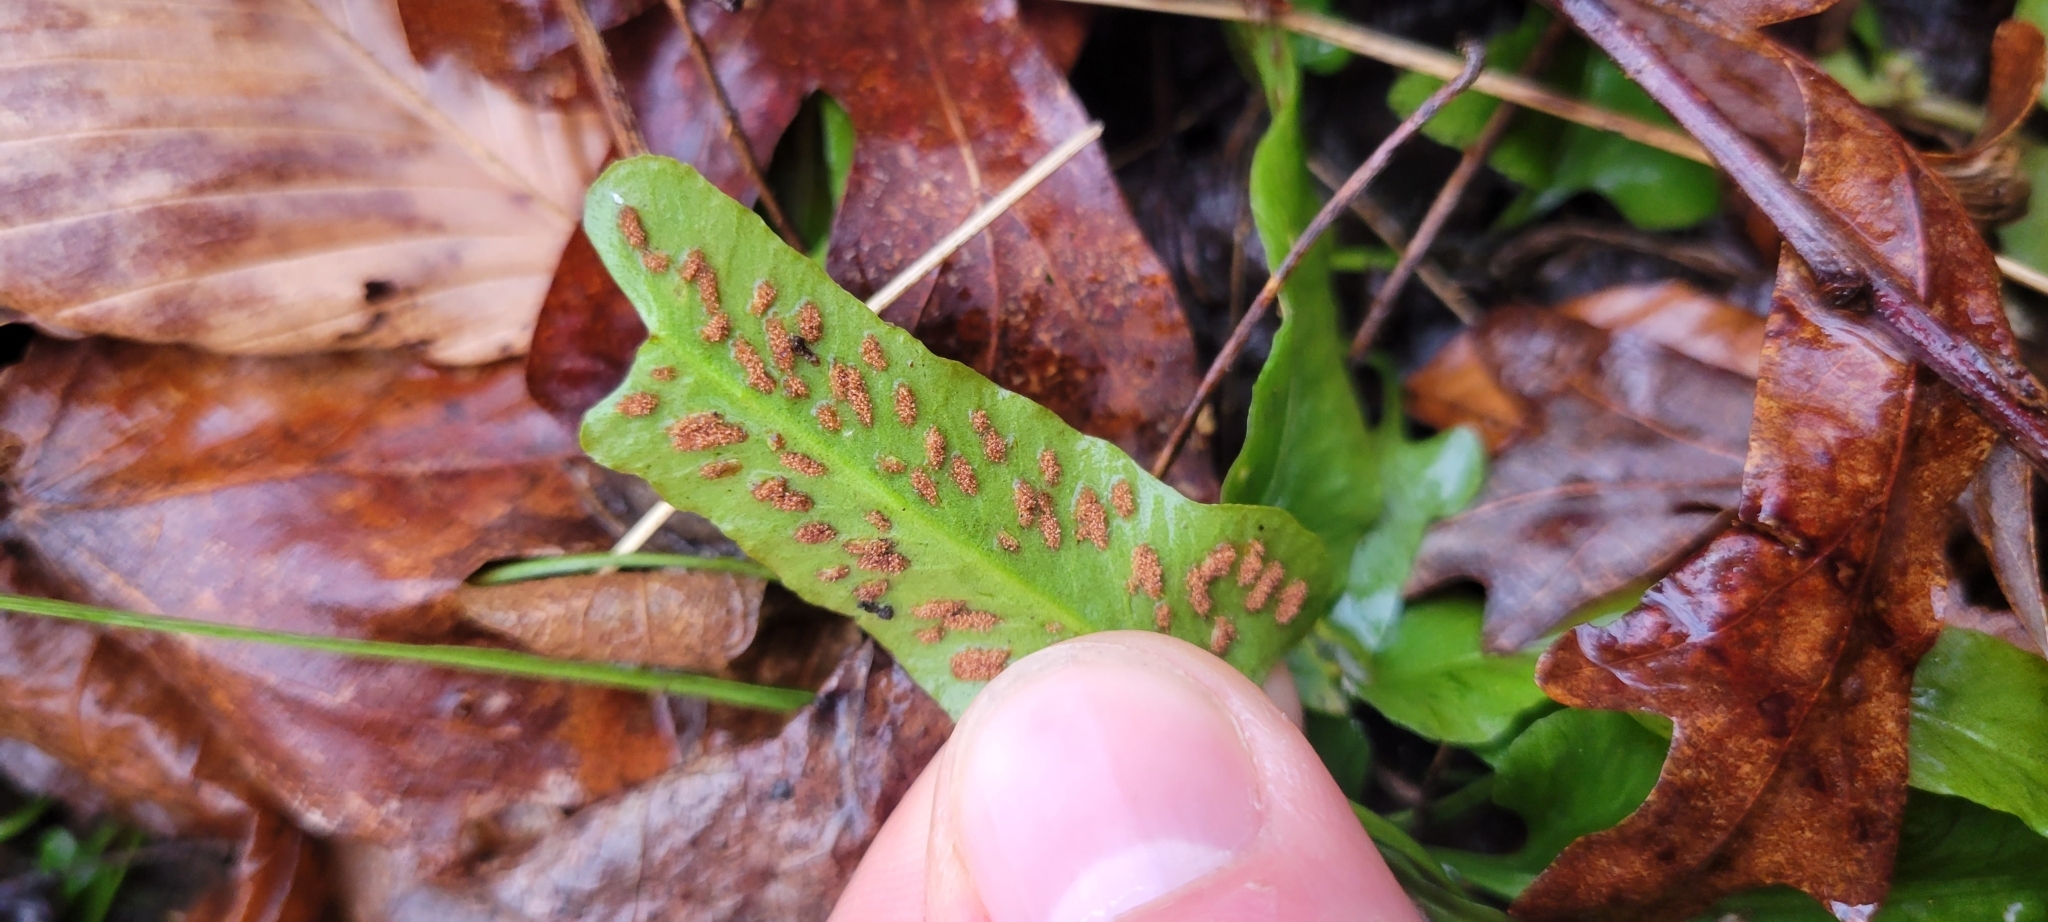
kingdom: Plantae
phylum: Tracheophyta
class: Polypodiopsida
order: Polypodiales
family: Aspleniaceae
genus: Asplenium
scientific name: Asplenium rhizophyllum
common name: Walking fern
